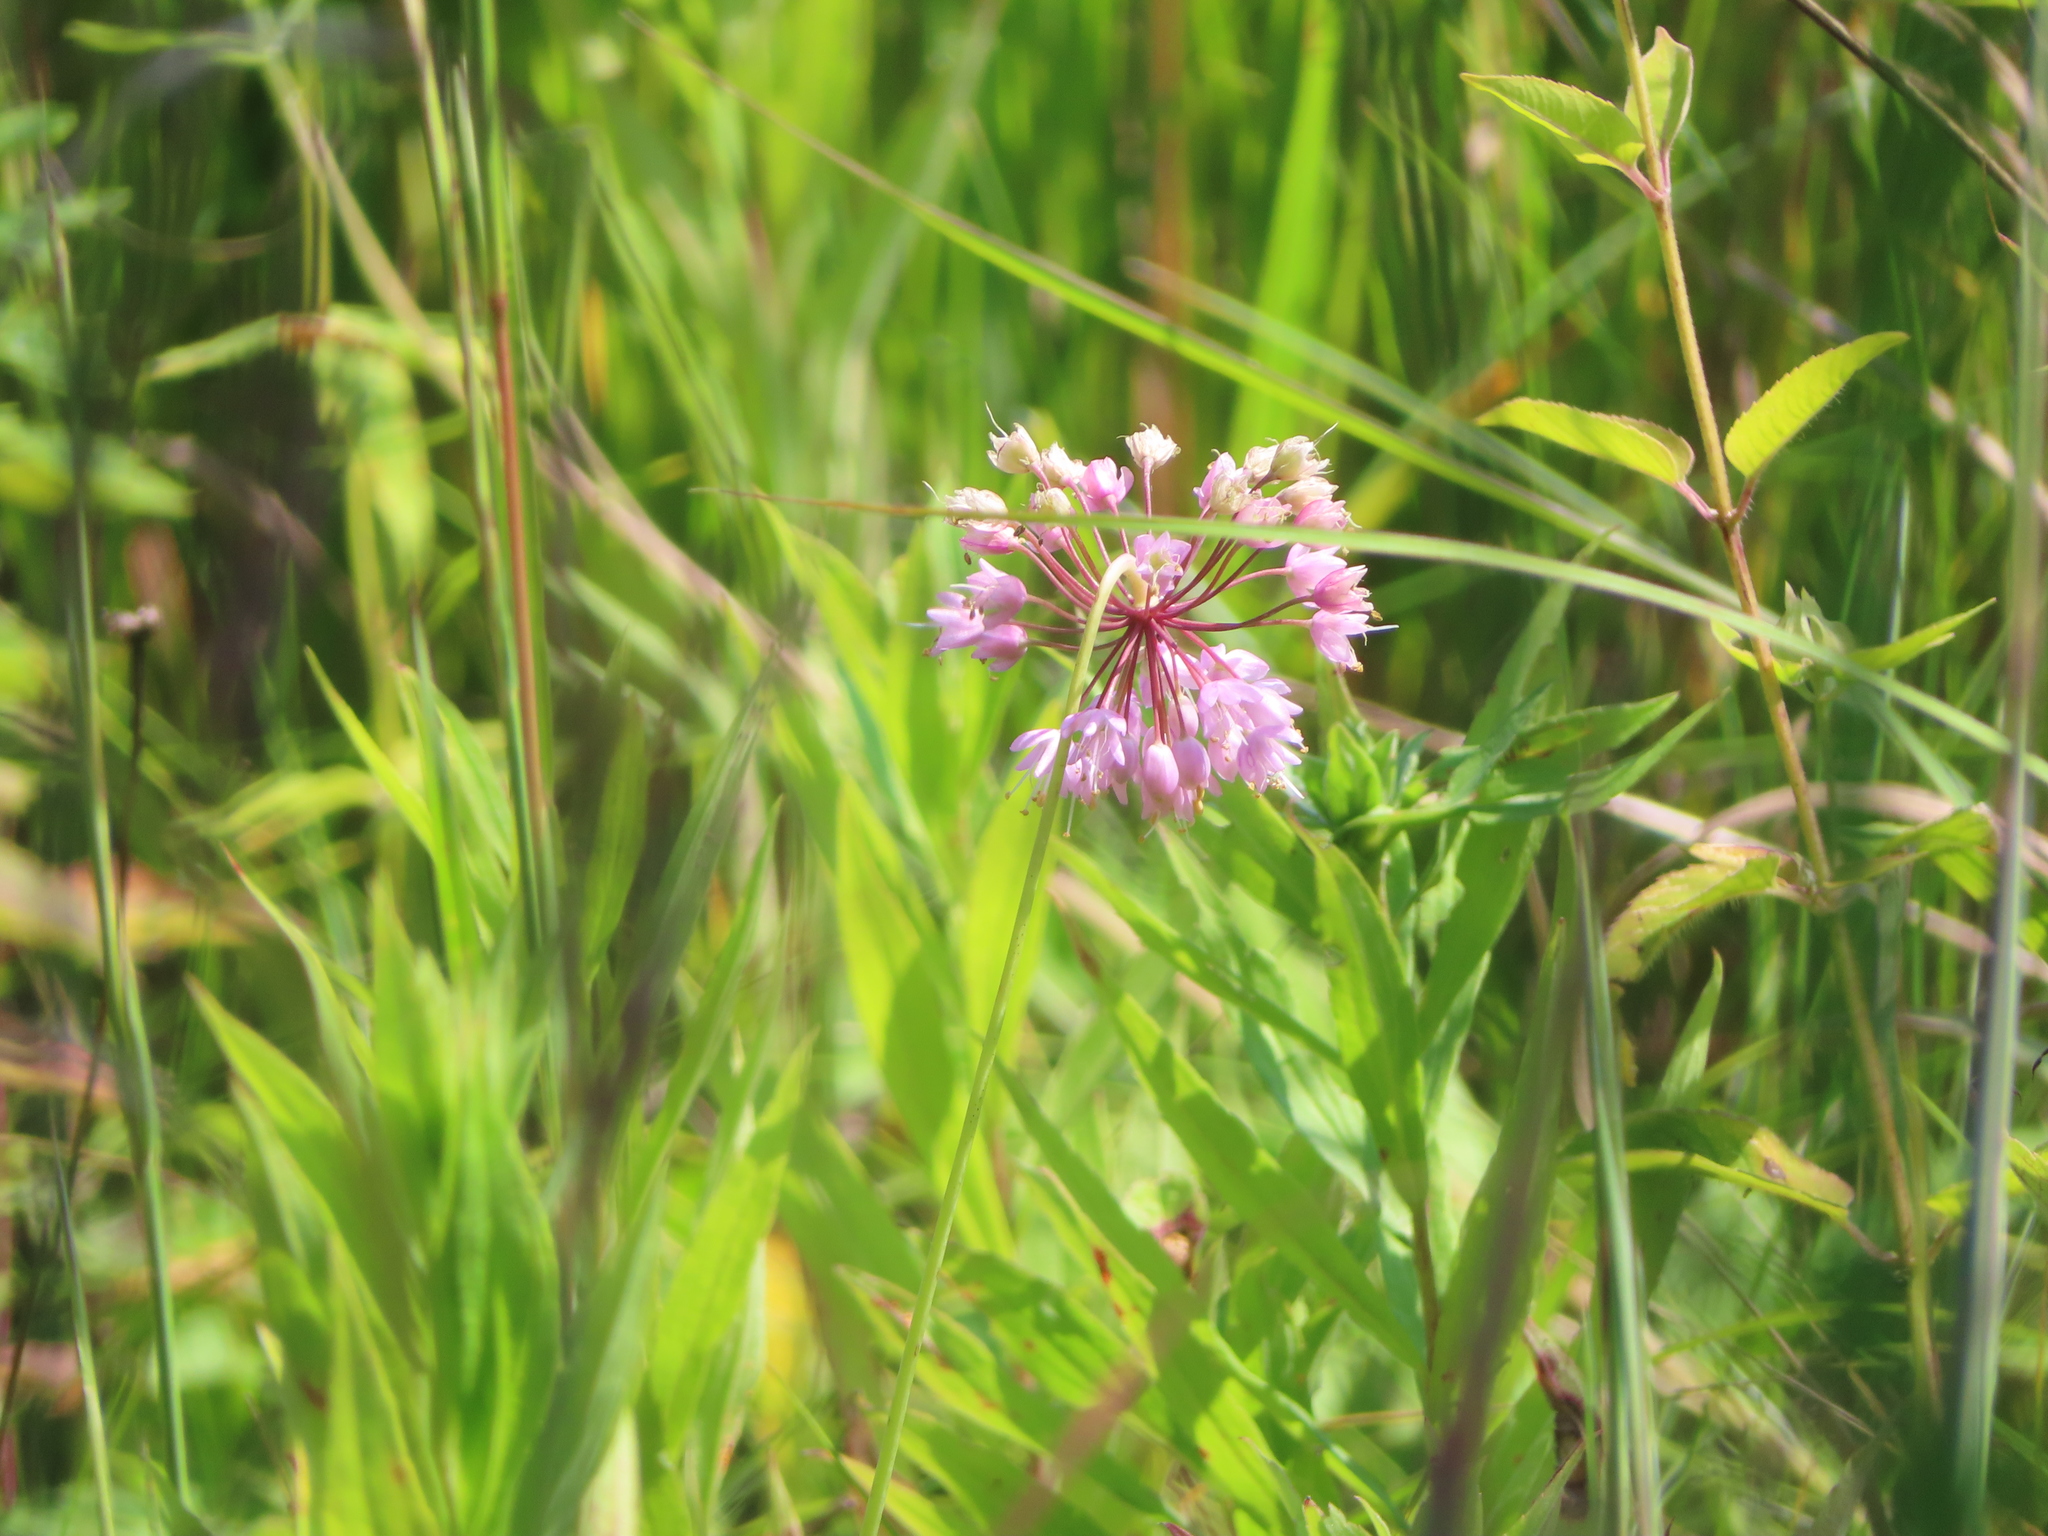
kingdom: Plantae
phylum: Tracheophyta
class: Liliopsida
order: Asparagales
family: Amaryllidaceae
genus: Allium
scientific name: Allium cernuum
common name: Nodding onion
